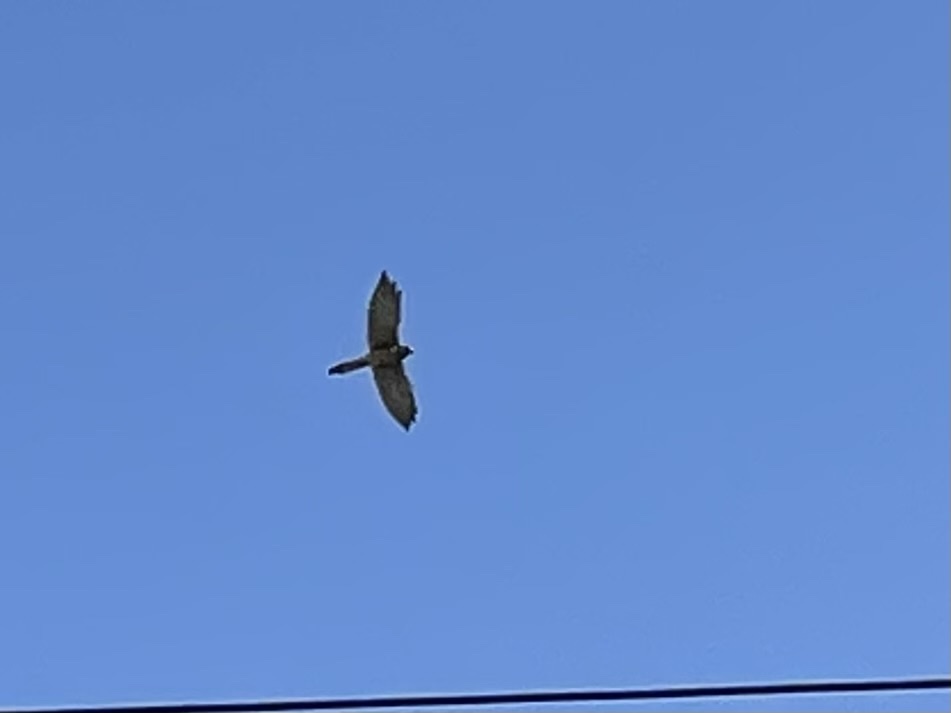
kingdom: Animalia
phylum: Chordata
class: Aves
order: Falconiformes
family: Falconidae
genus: Falco
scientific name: Falco tinnunculus
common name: Common kestrel
